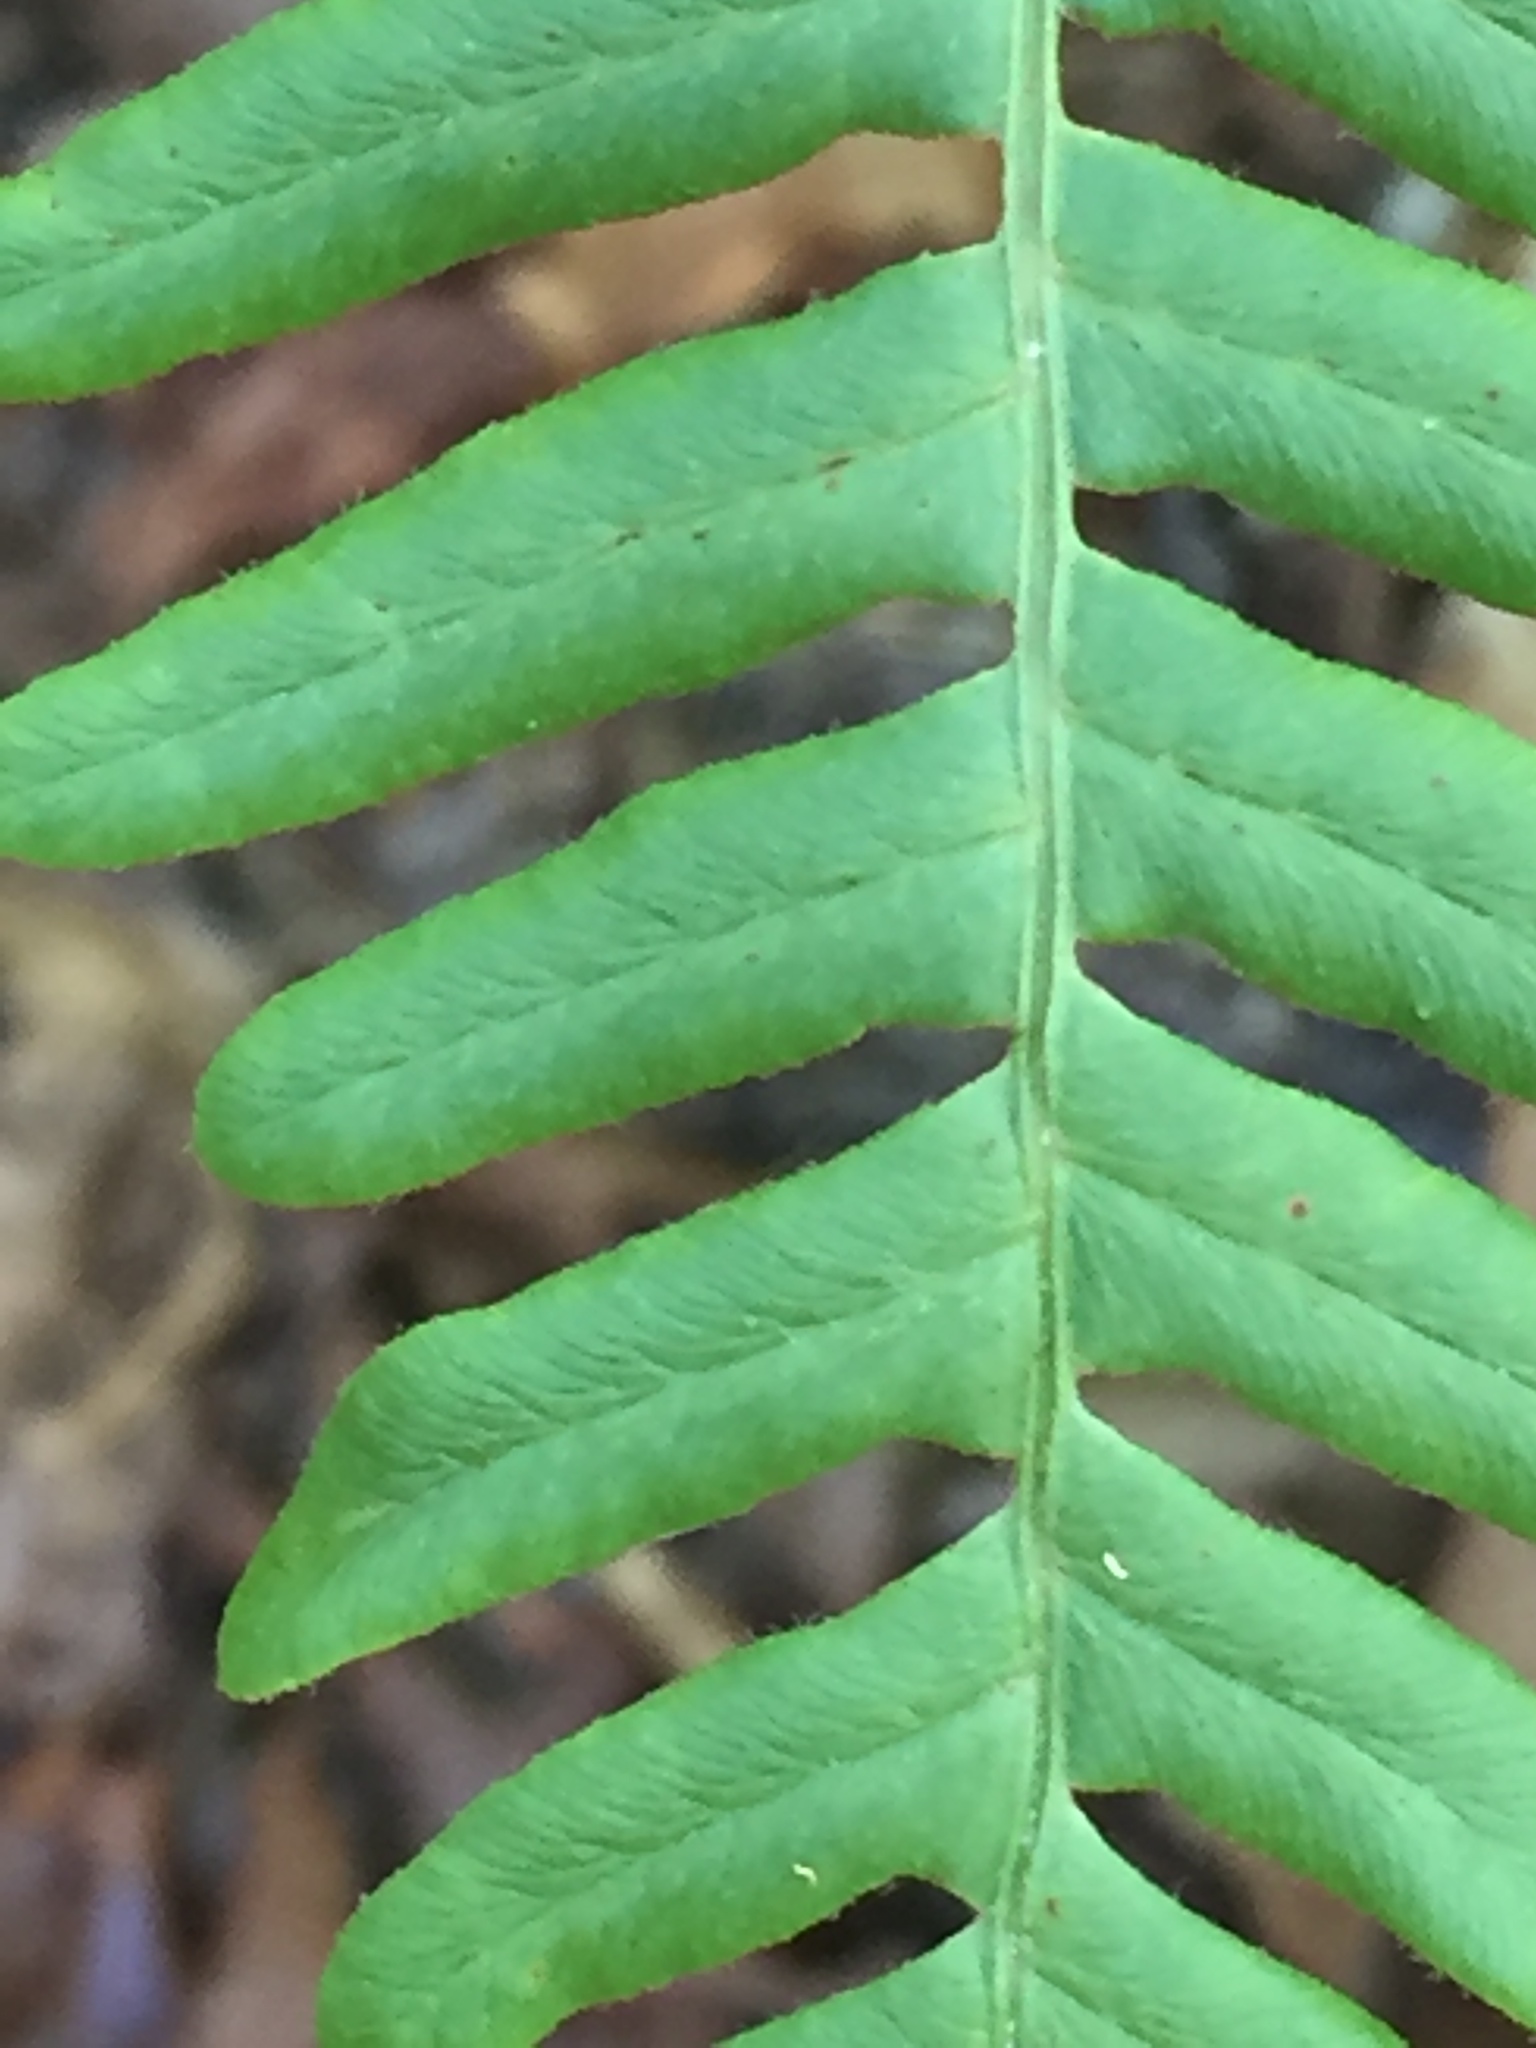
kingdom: Plantae
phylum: Tracheophyta
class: Polypodiopsida
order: Polypodiales
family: Dennstaedtiaceae
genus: Pteridium
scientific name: Pteridium aquilinum
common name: Bracken
